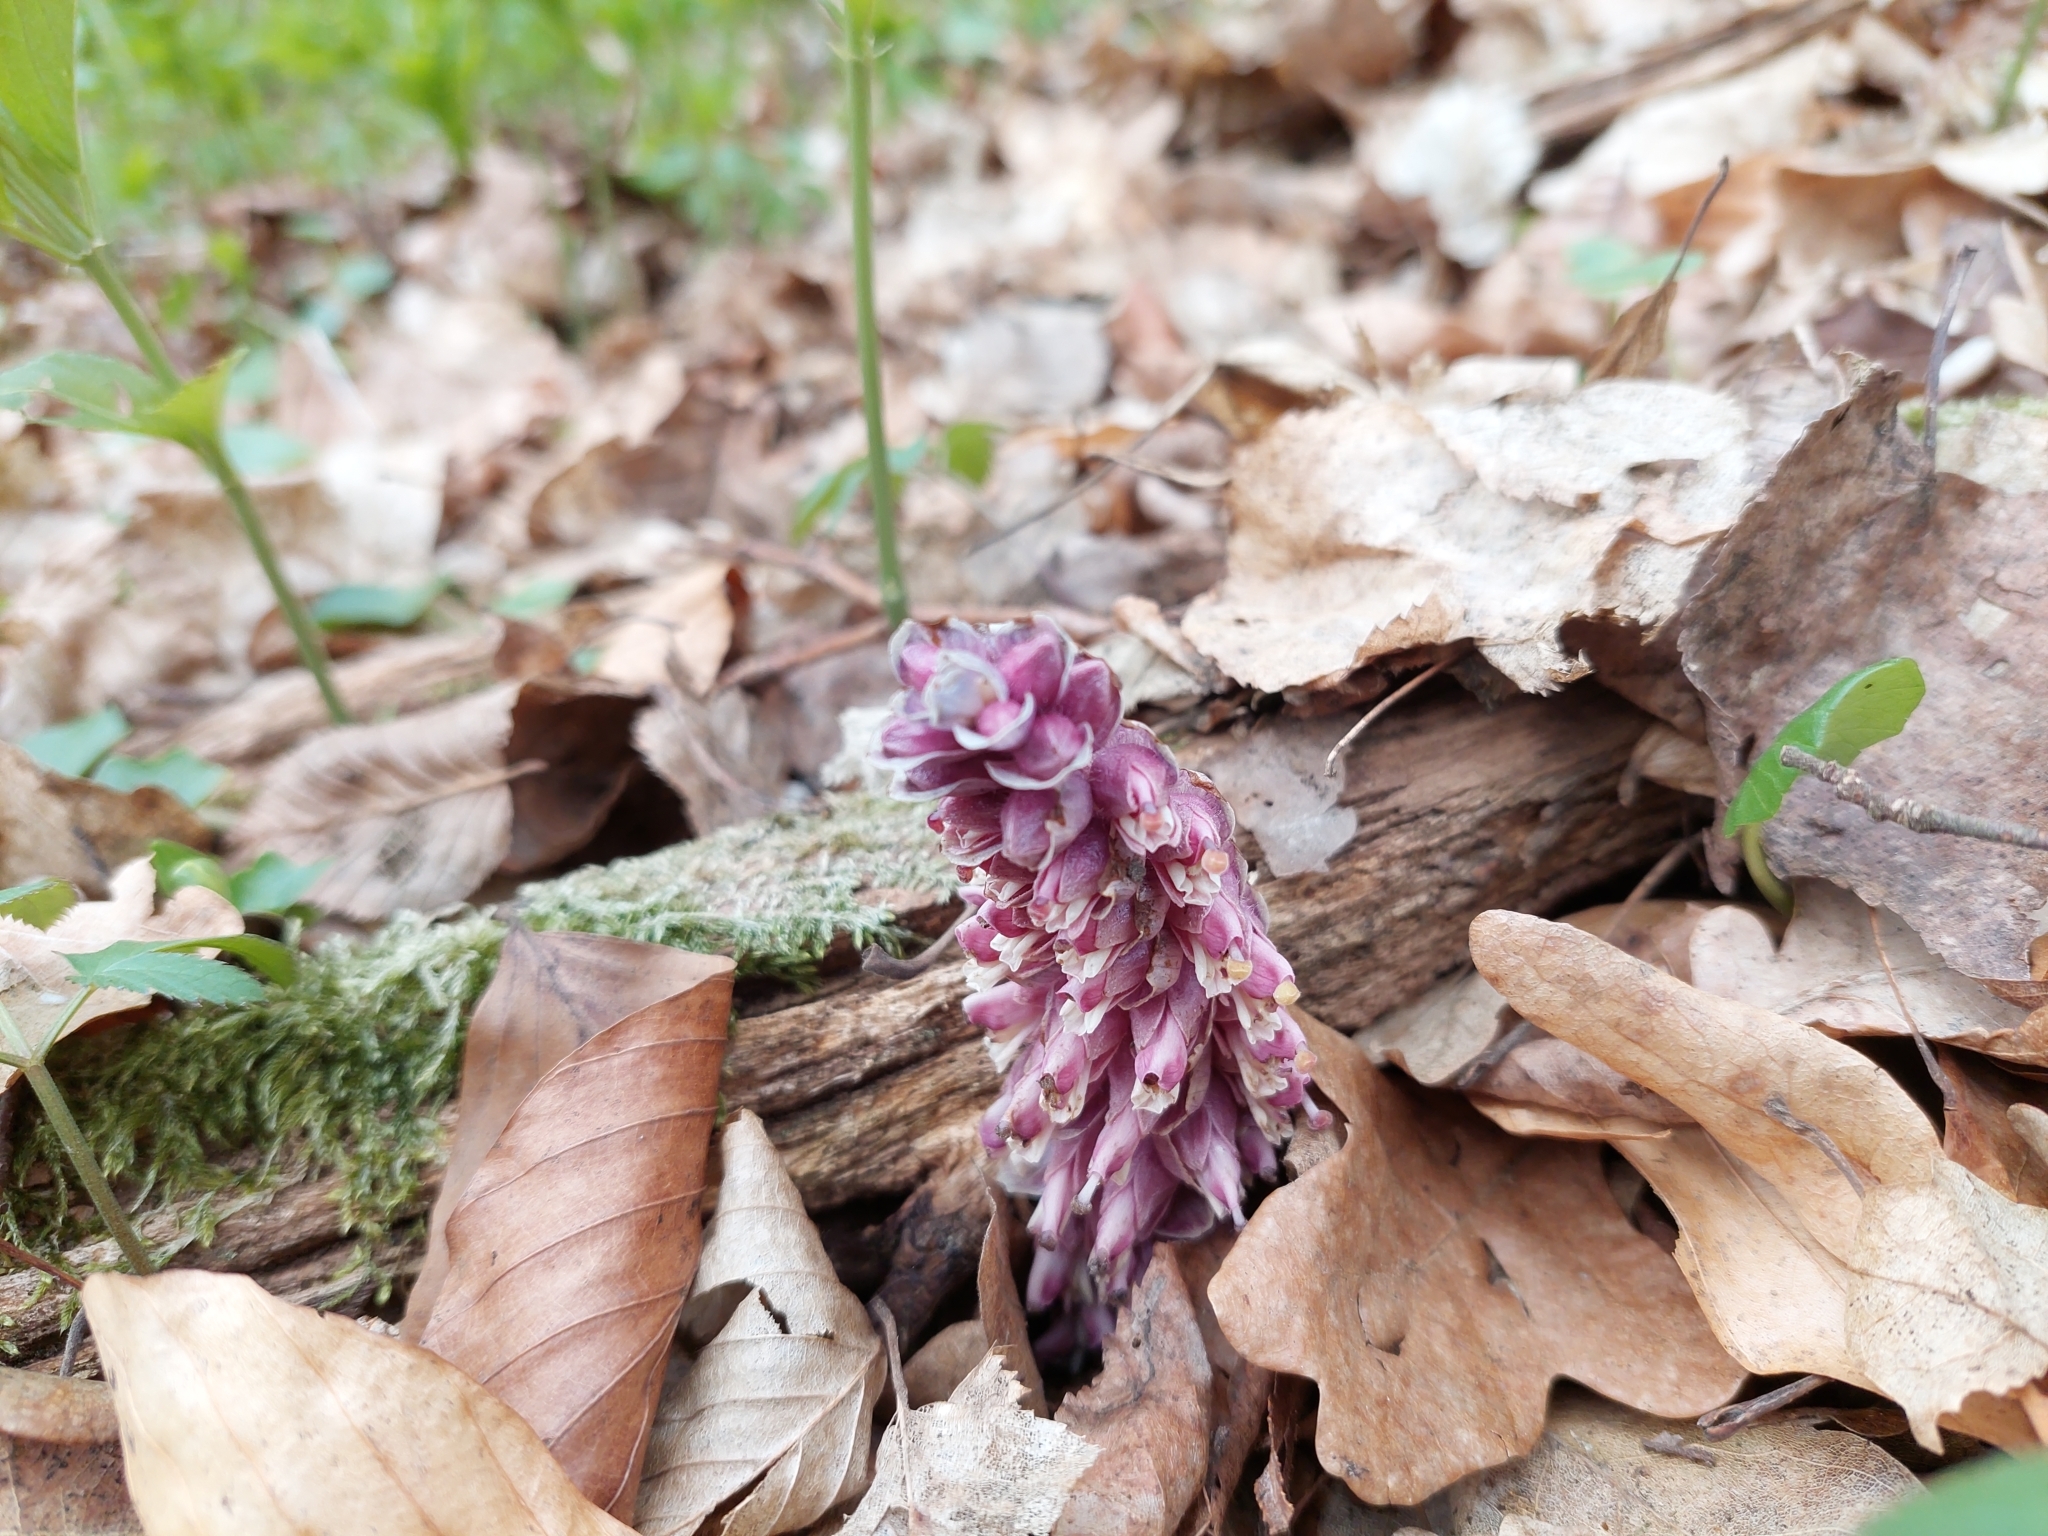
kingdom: Plantae
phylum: Tracheophyta
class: Magnoliopsida
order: Lamiales
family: Orobanchaceae
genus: Lathraea
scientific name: Lathraea squamaria
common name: Toothwort
